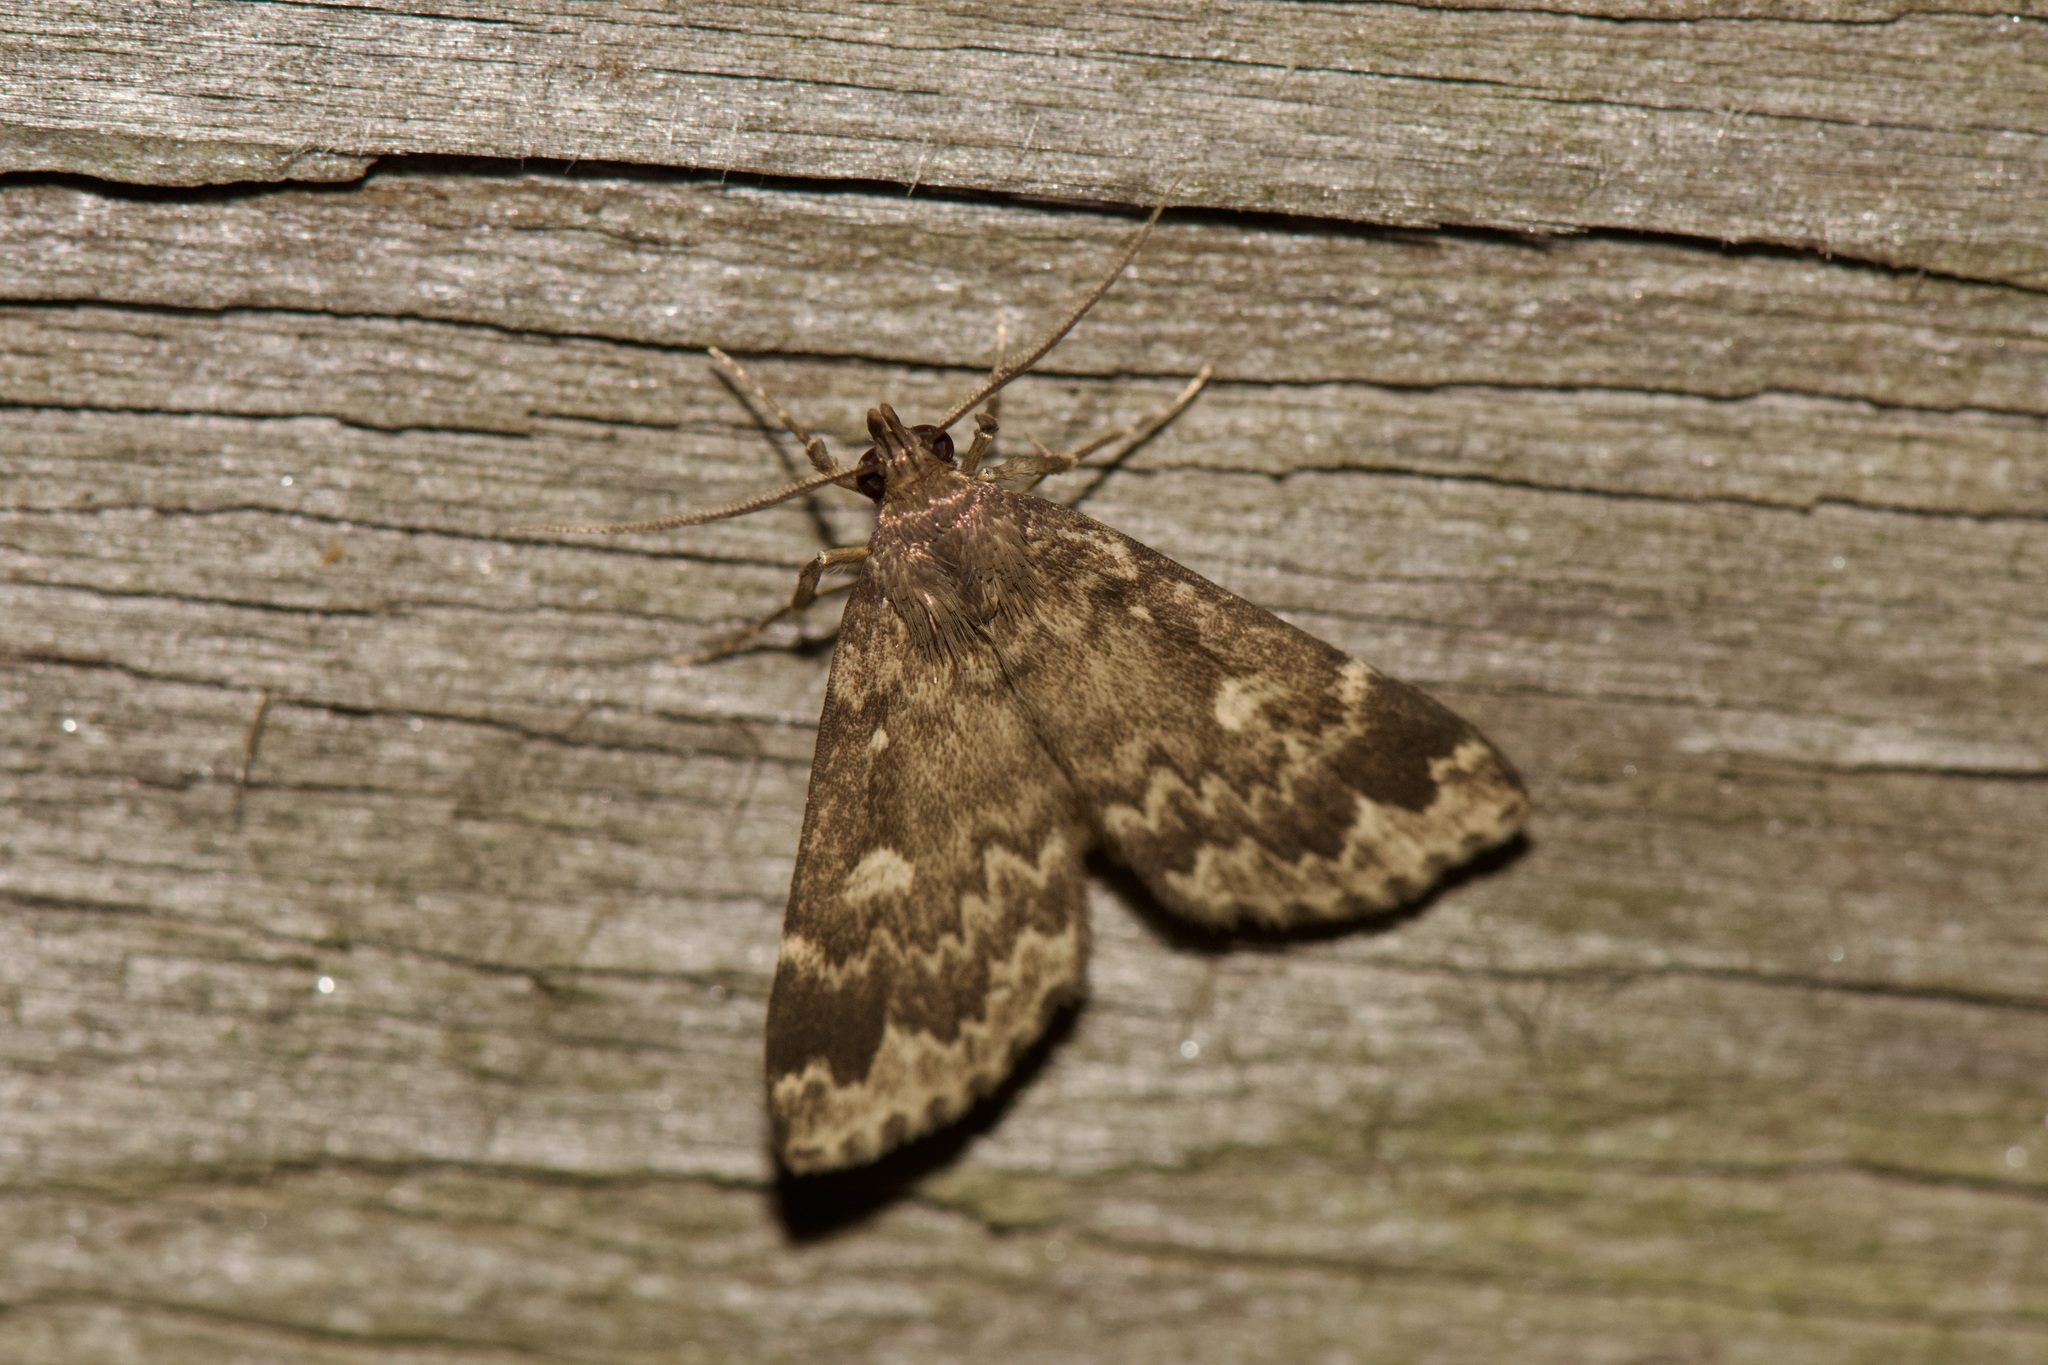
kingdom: Animalia
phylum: Arthropoda
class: Insecta
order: Lepidoptera
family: Erebidae
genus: Idia
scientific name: Idia lubricalis
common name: Twin-striped tabby
